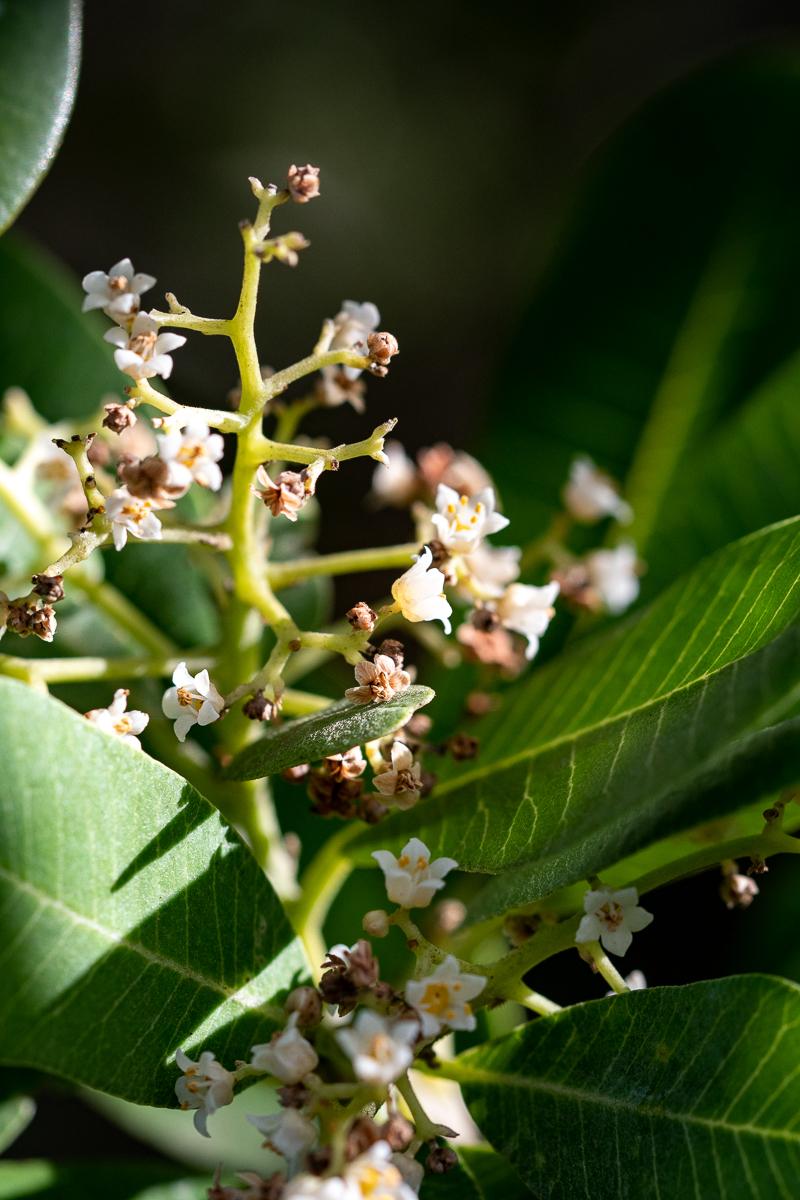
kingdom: Plantae
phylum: Tracheophyta
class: Magnoliopsida
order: Sapindales
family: Anacardiaceae
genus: Heeria
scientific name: Heeria argentea
